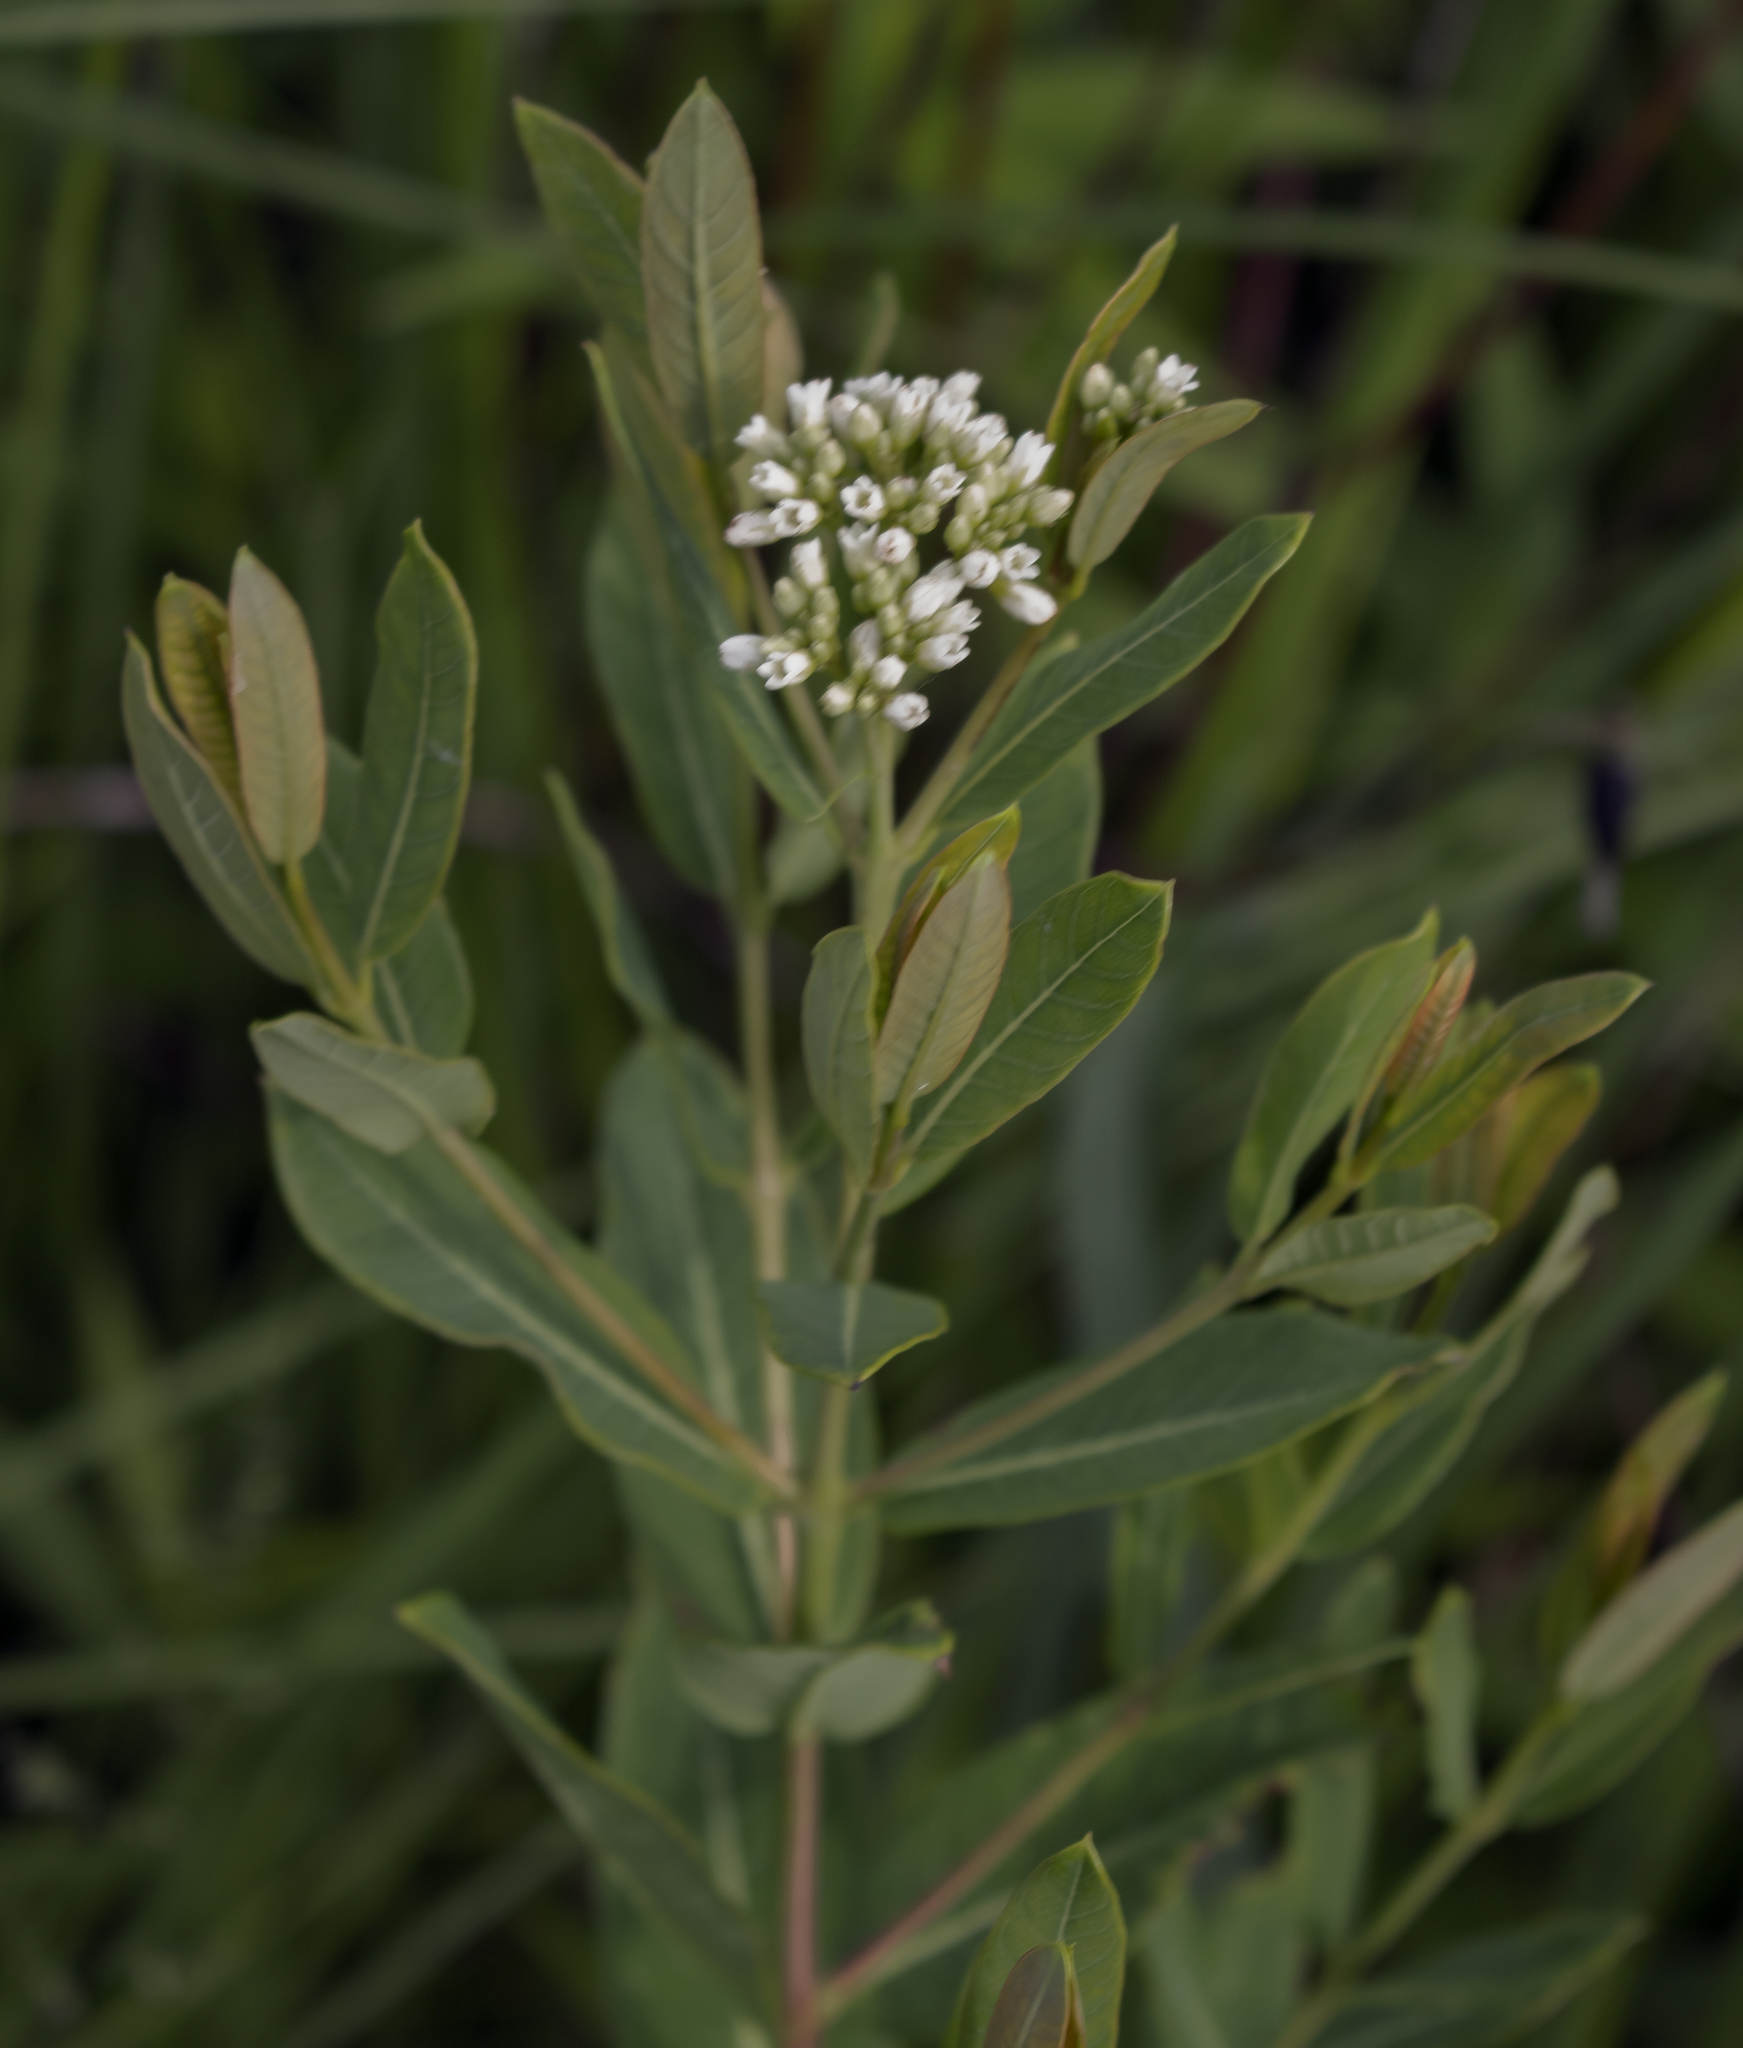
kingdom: Plantae
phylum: Tracheophyta
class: Magnoliopsida
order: Gentianales
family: Apocynaceae
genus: Apocynum
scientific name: Apocynum cannabinum
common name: Hemp dogbane
